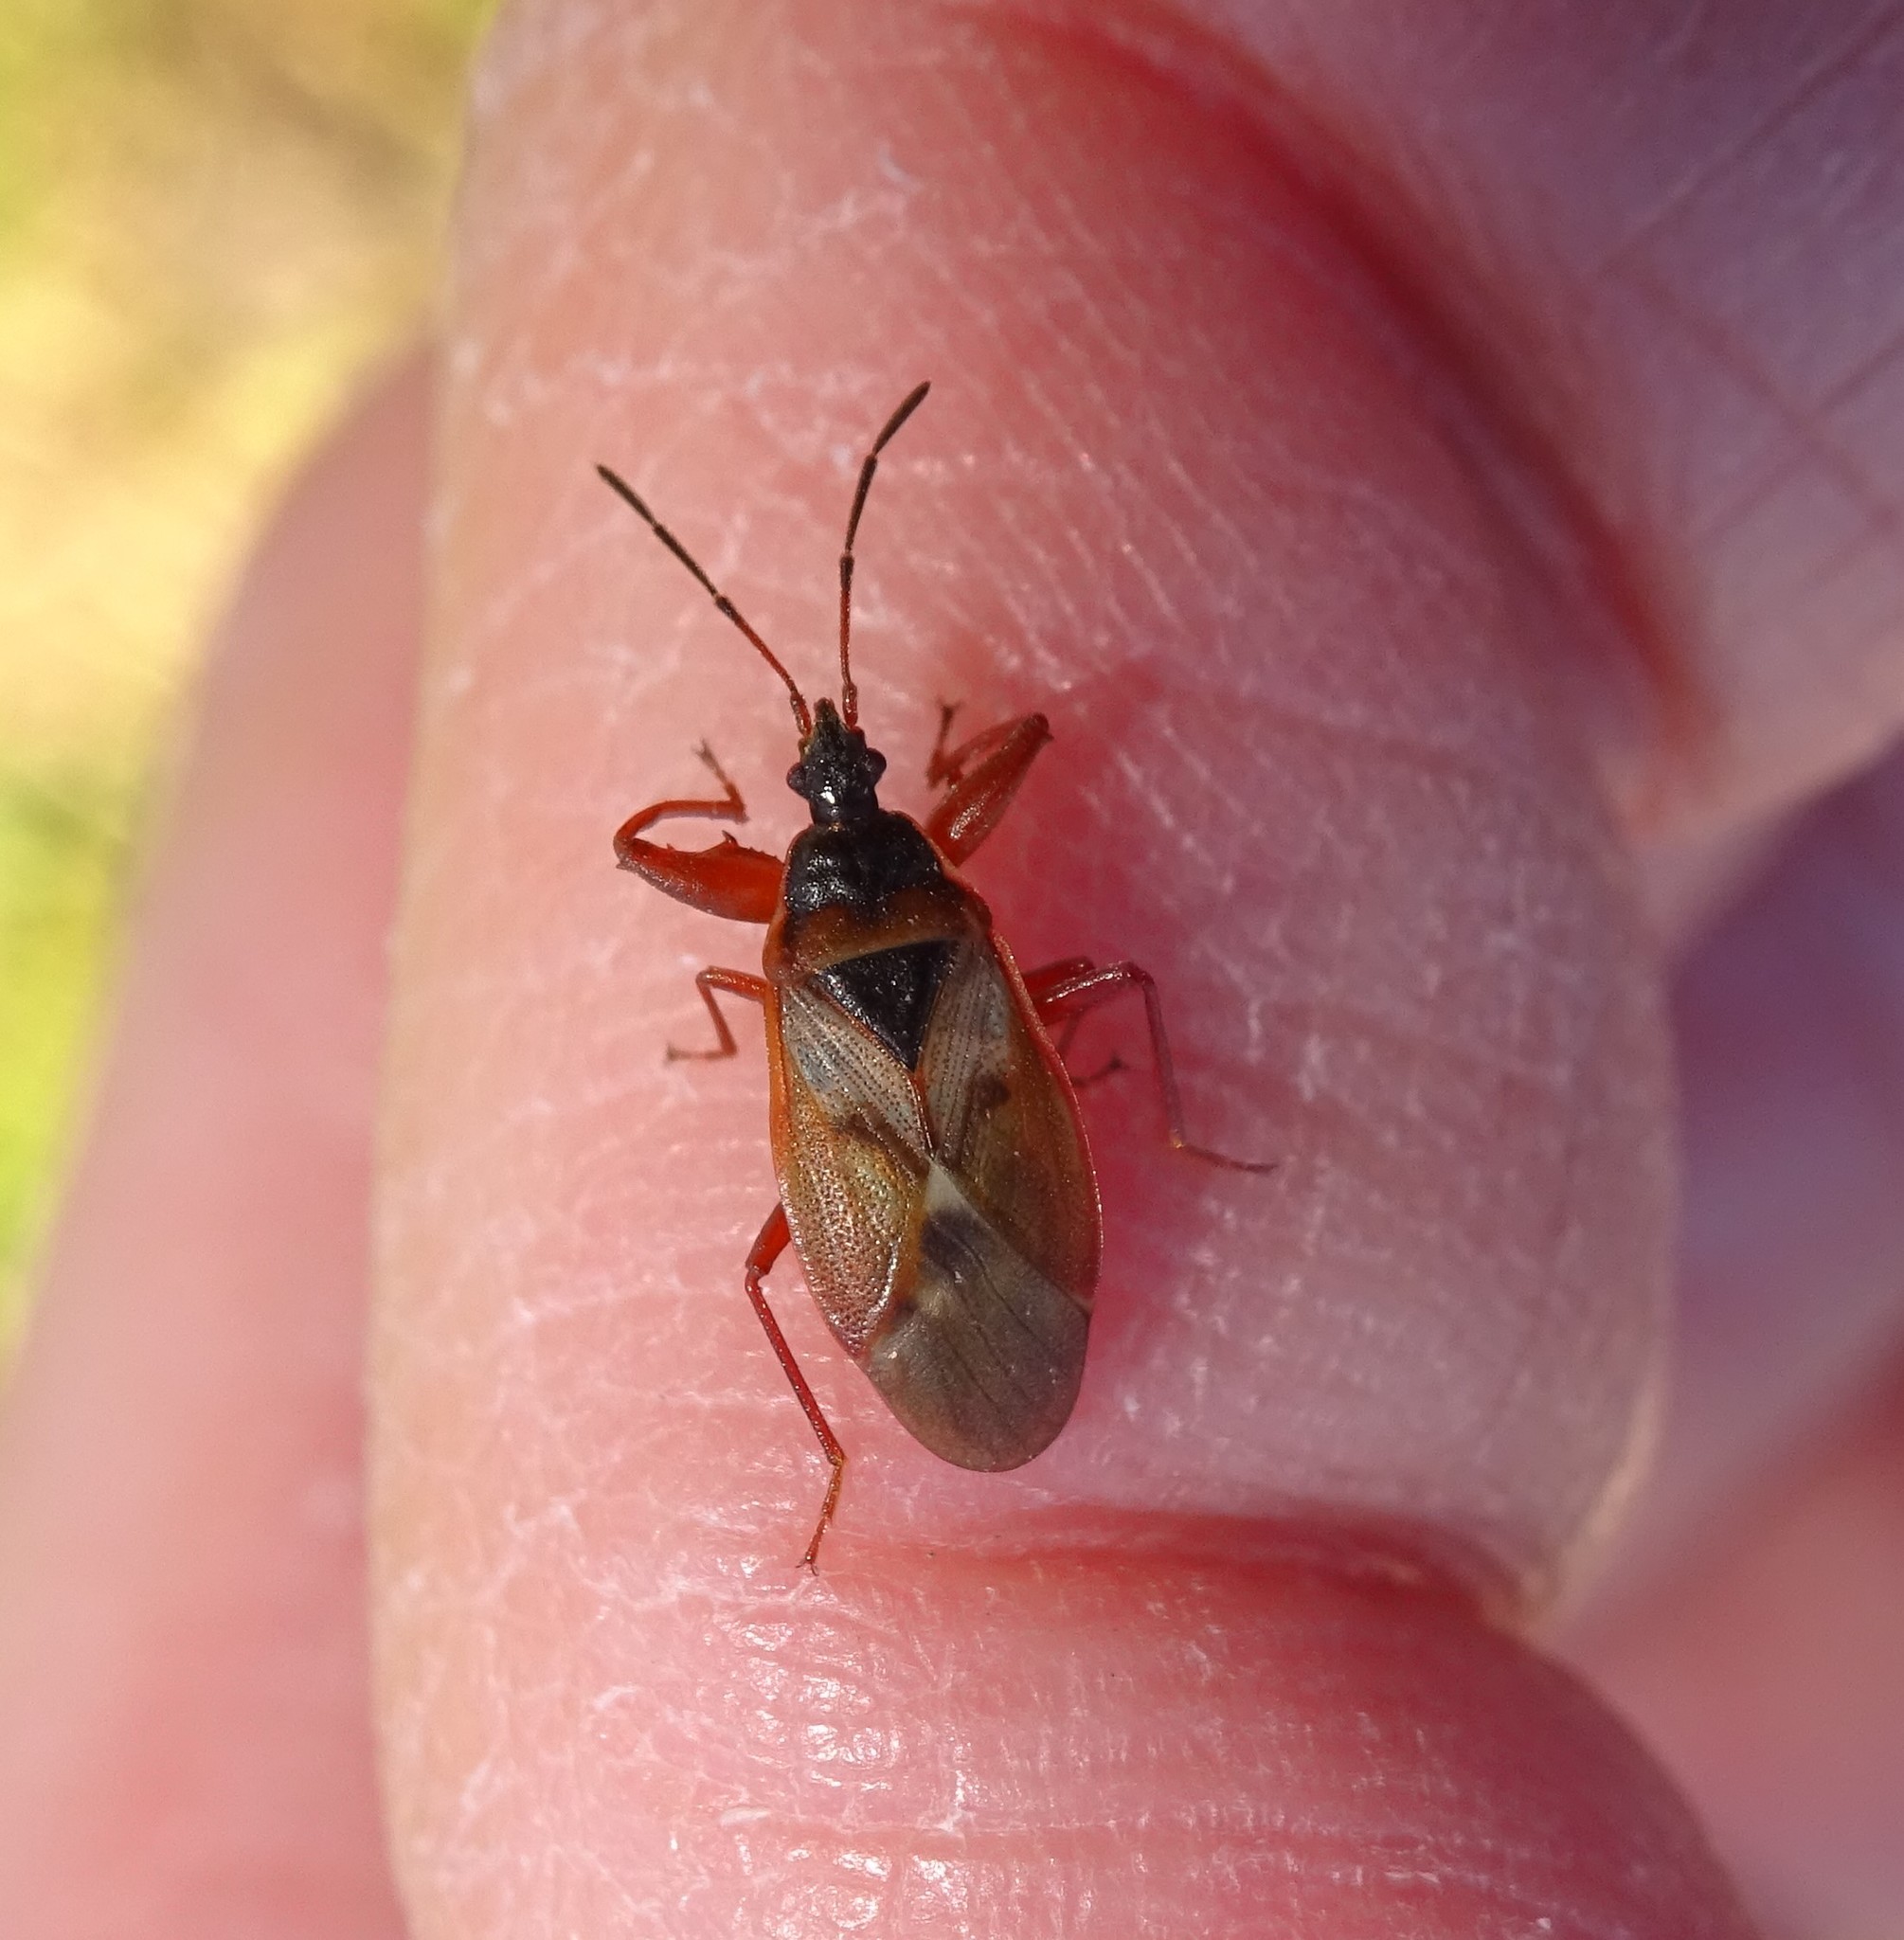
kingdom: Animalia
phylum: Arthropoda
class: Insecta
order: Hemiptera
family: Rhyparochromidae
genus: Gastrodes
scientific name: Gastrodes abietum
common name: Spruce cone bug
